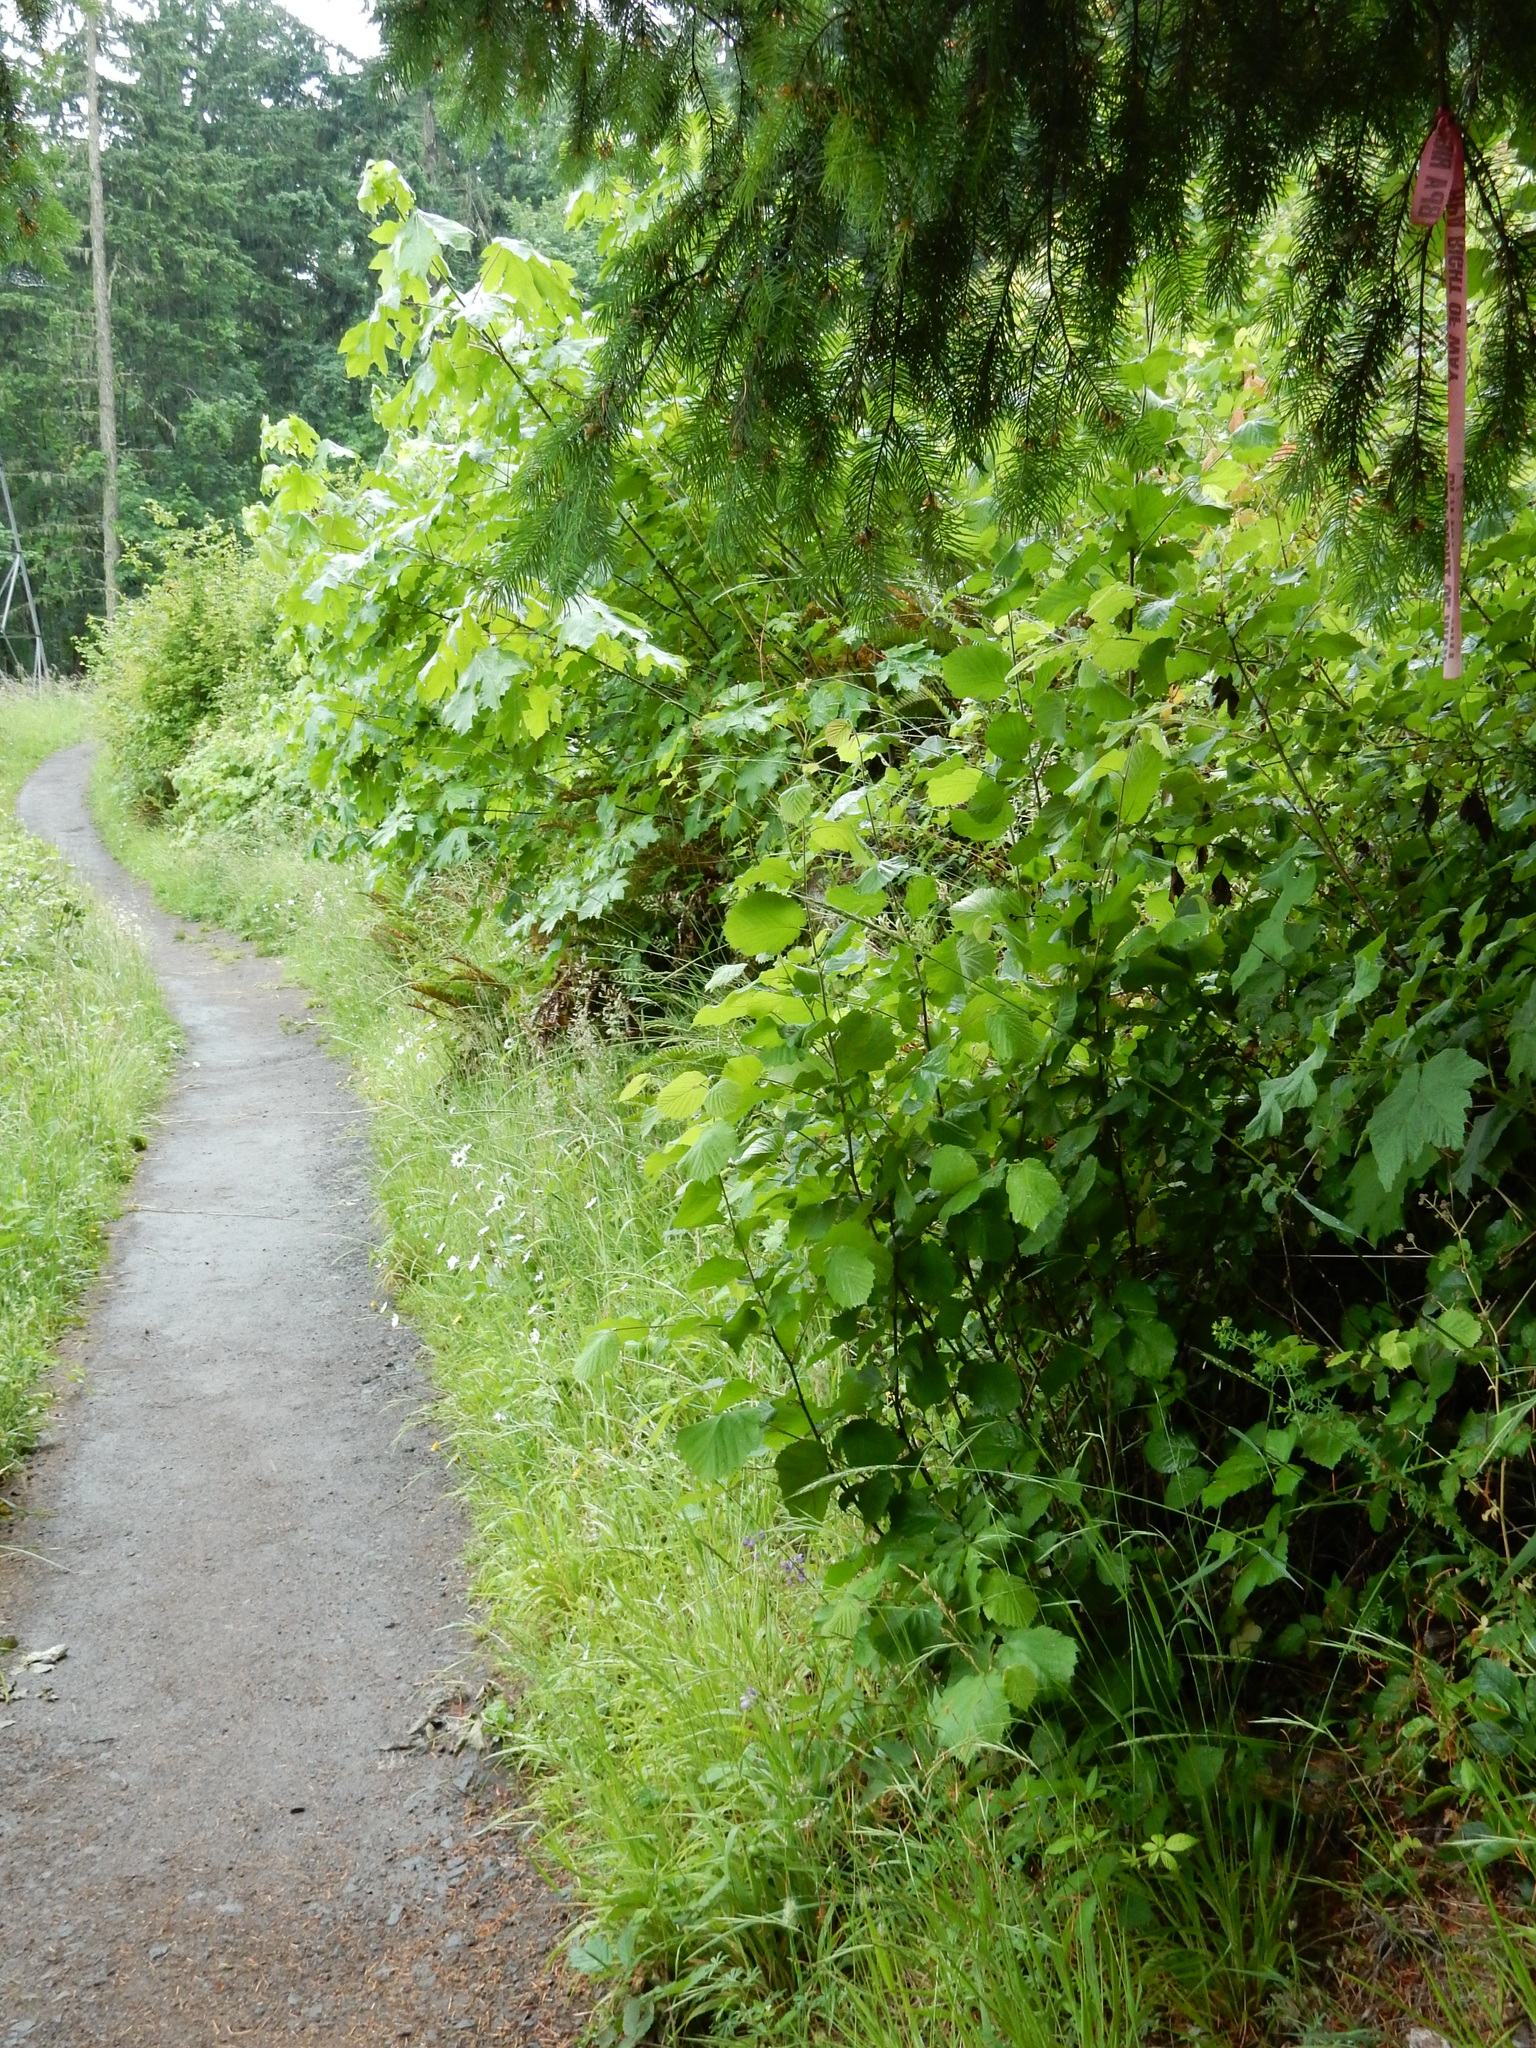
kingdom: Plantae
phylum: Tracheophyta
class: Magnoliopsida
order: Fabales
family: Fabaceae
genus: Lupinus
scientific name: Lupinus latifolius
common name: Broad-leaved lupine
